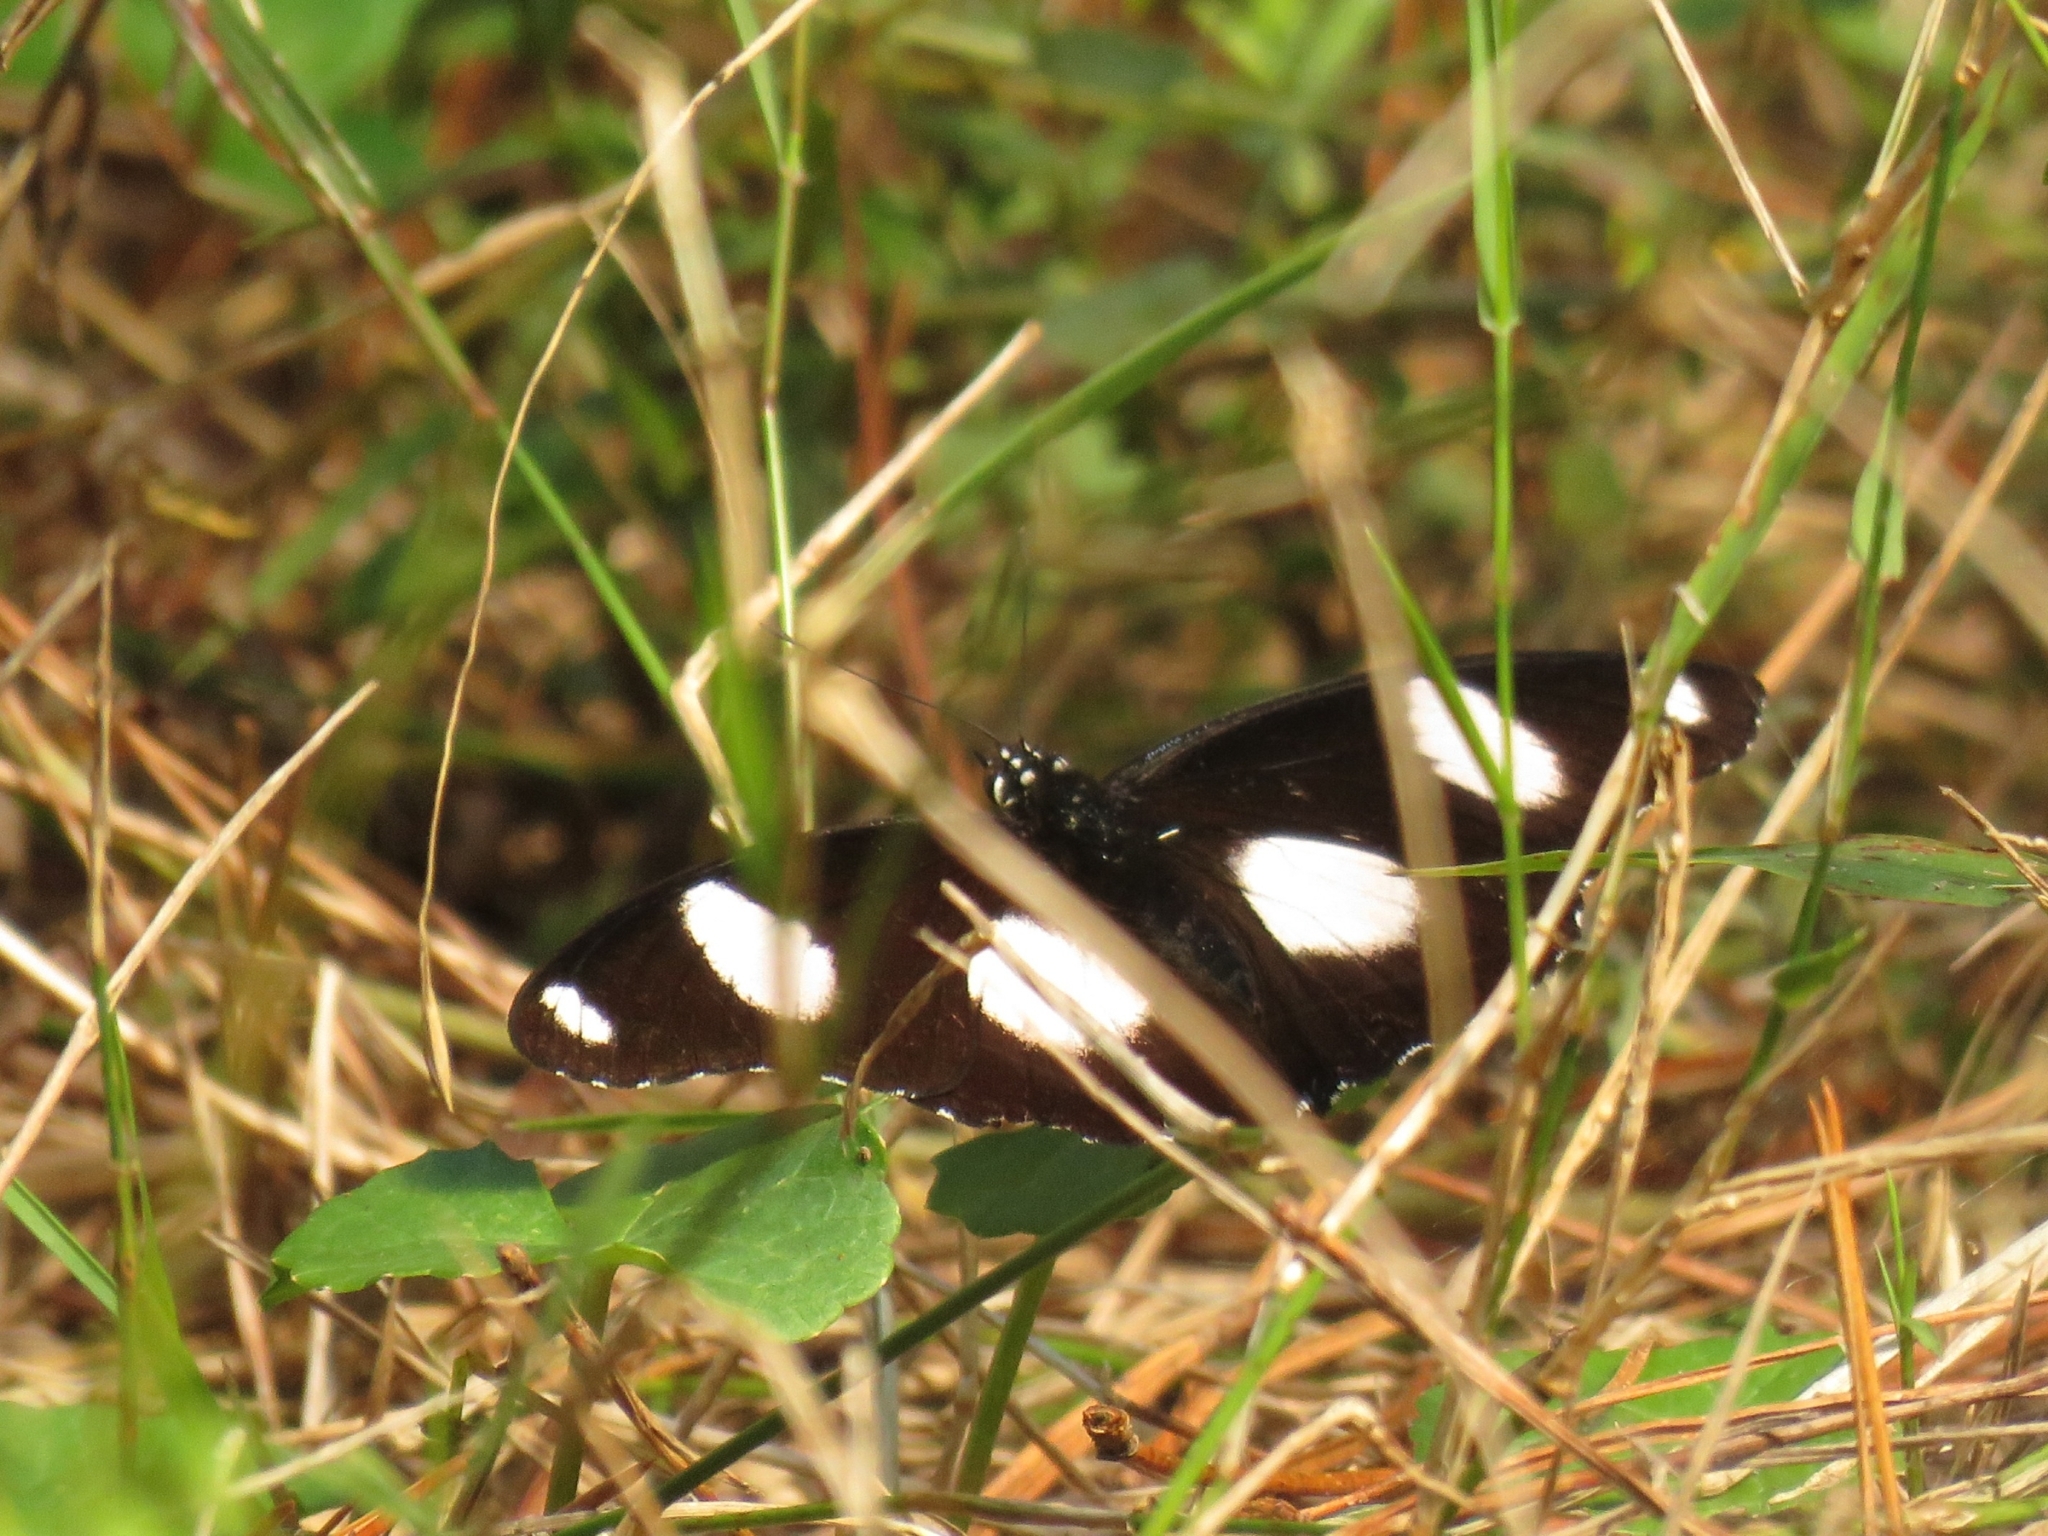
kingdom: Animalia
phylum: Arthropoda
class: Insecta
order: Lepidoptera
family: Nymphalidae
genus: Hypolimnas
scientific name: Hypolimnas misippus
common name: False plain tiger
